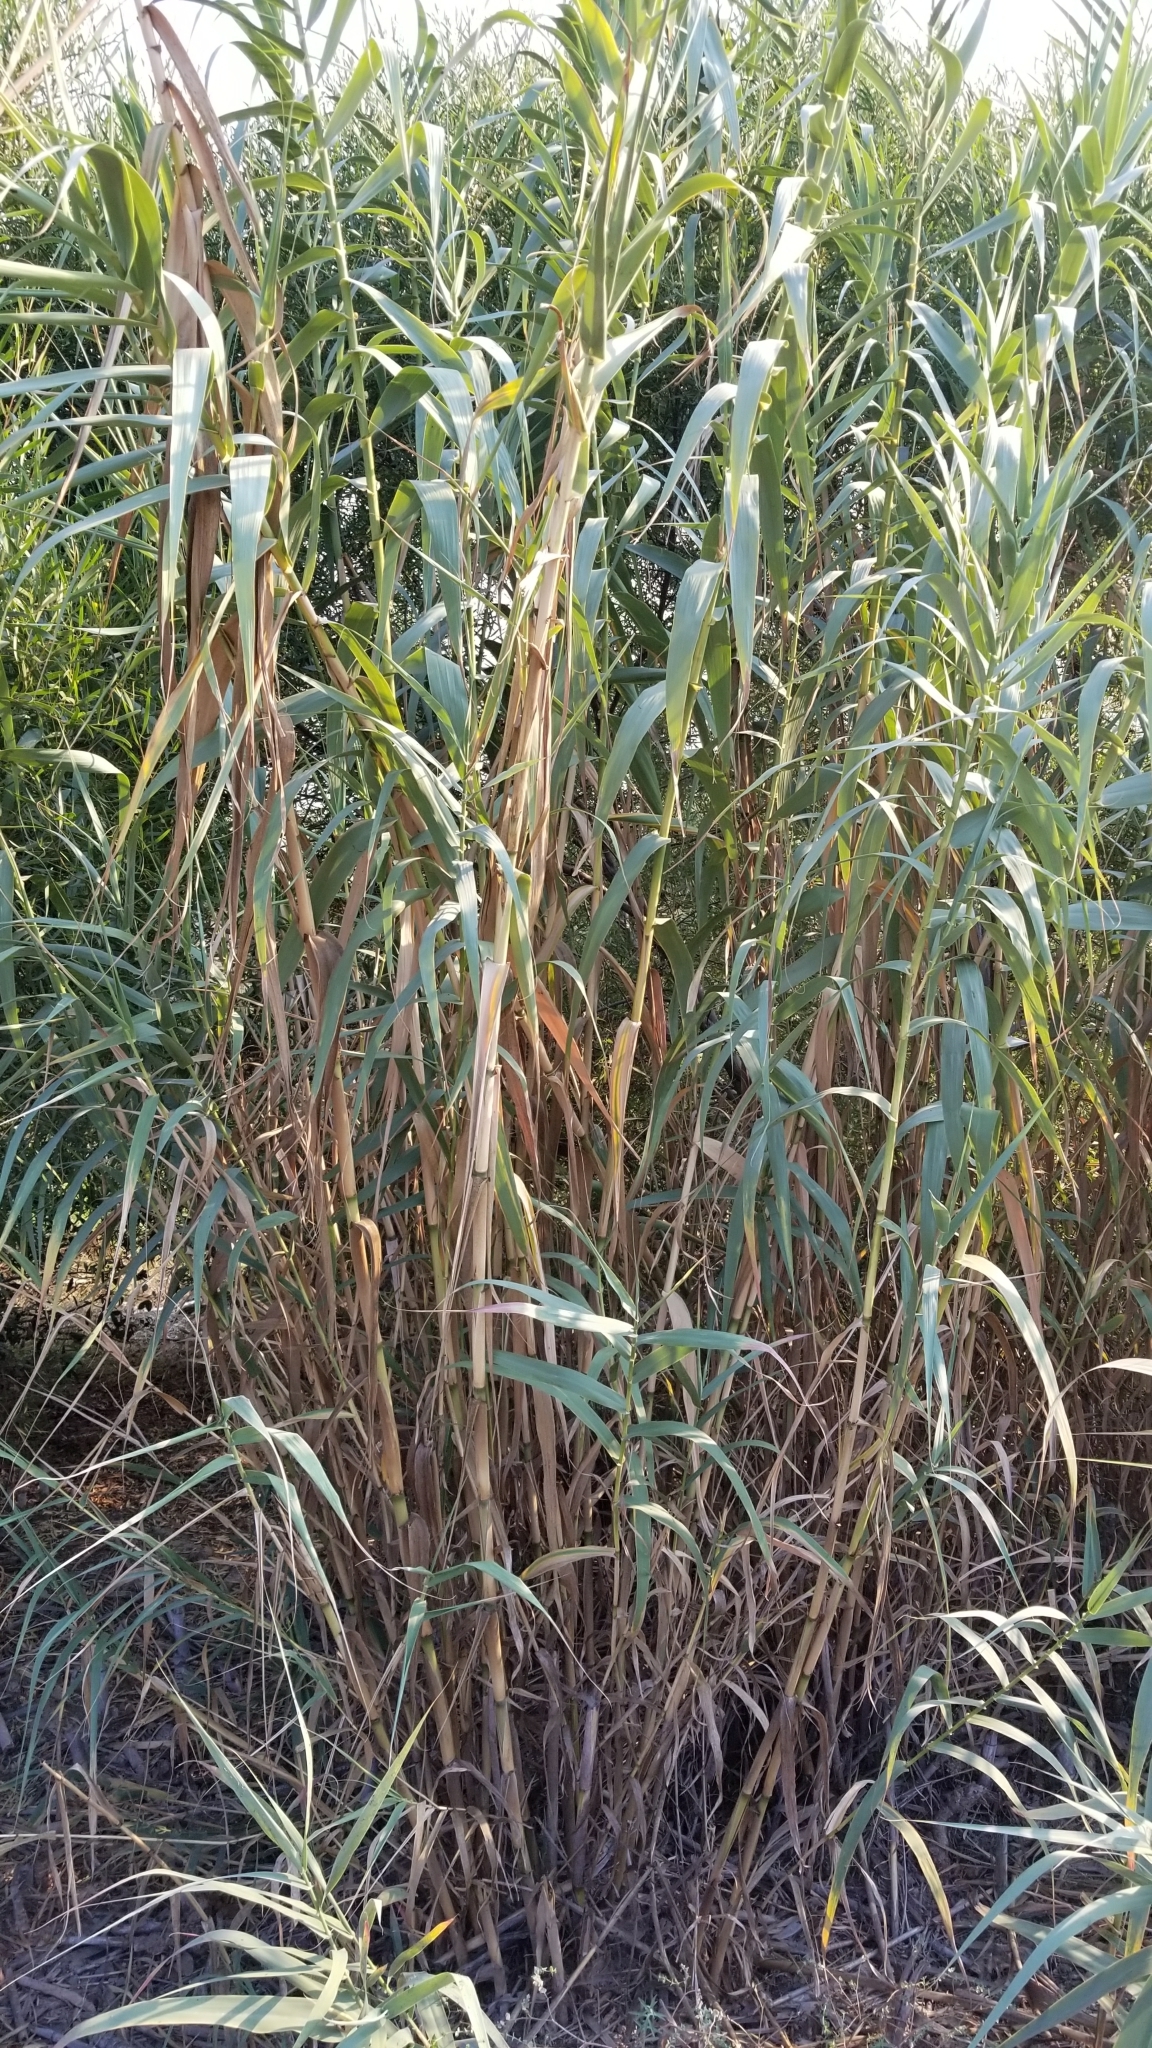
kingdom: Plantae
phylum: Tracheophyta
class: Liliopsida
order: Poales
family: Poaceae
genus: Arundo
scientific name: Arundo donax
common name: Giant reed
